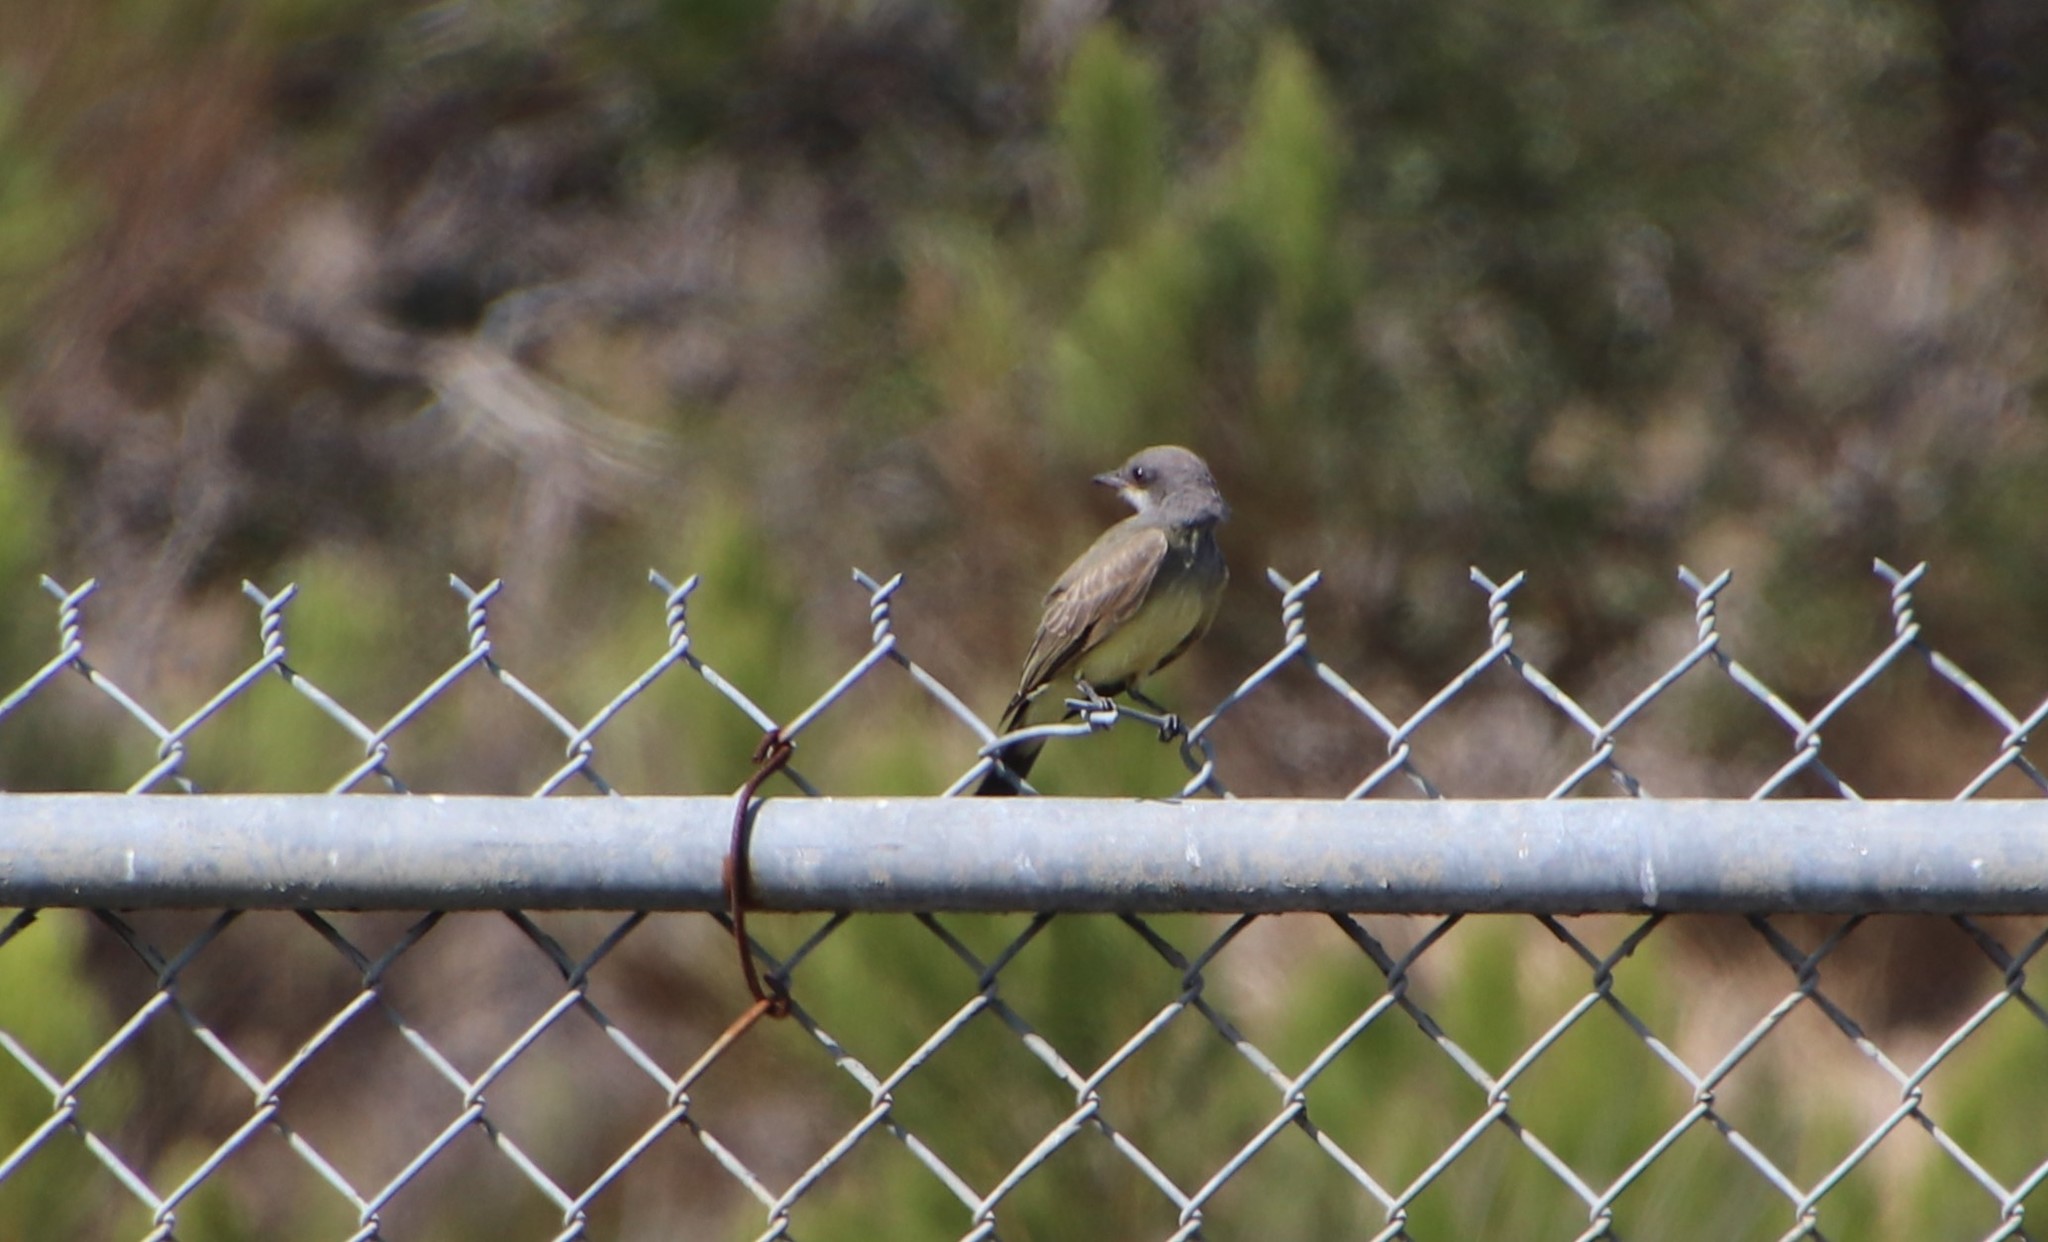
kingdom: Animalia
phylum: Chordata
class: Aves
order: Passeriformes
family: Tyrannidae
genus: Tyrannus
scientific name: Tyrannus vociferans
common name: Cassin's kingbird
